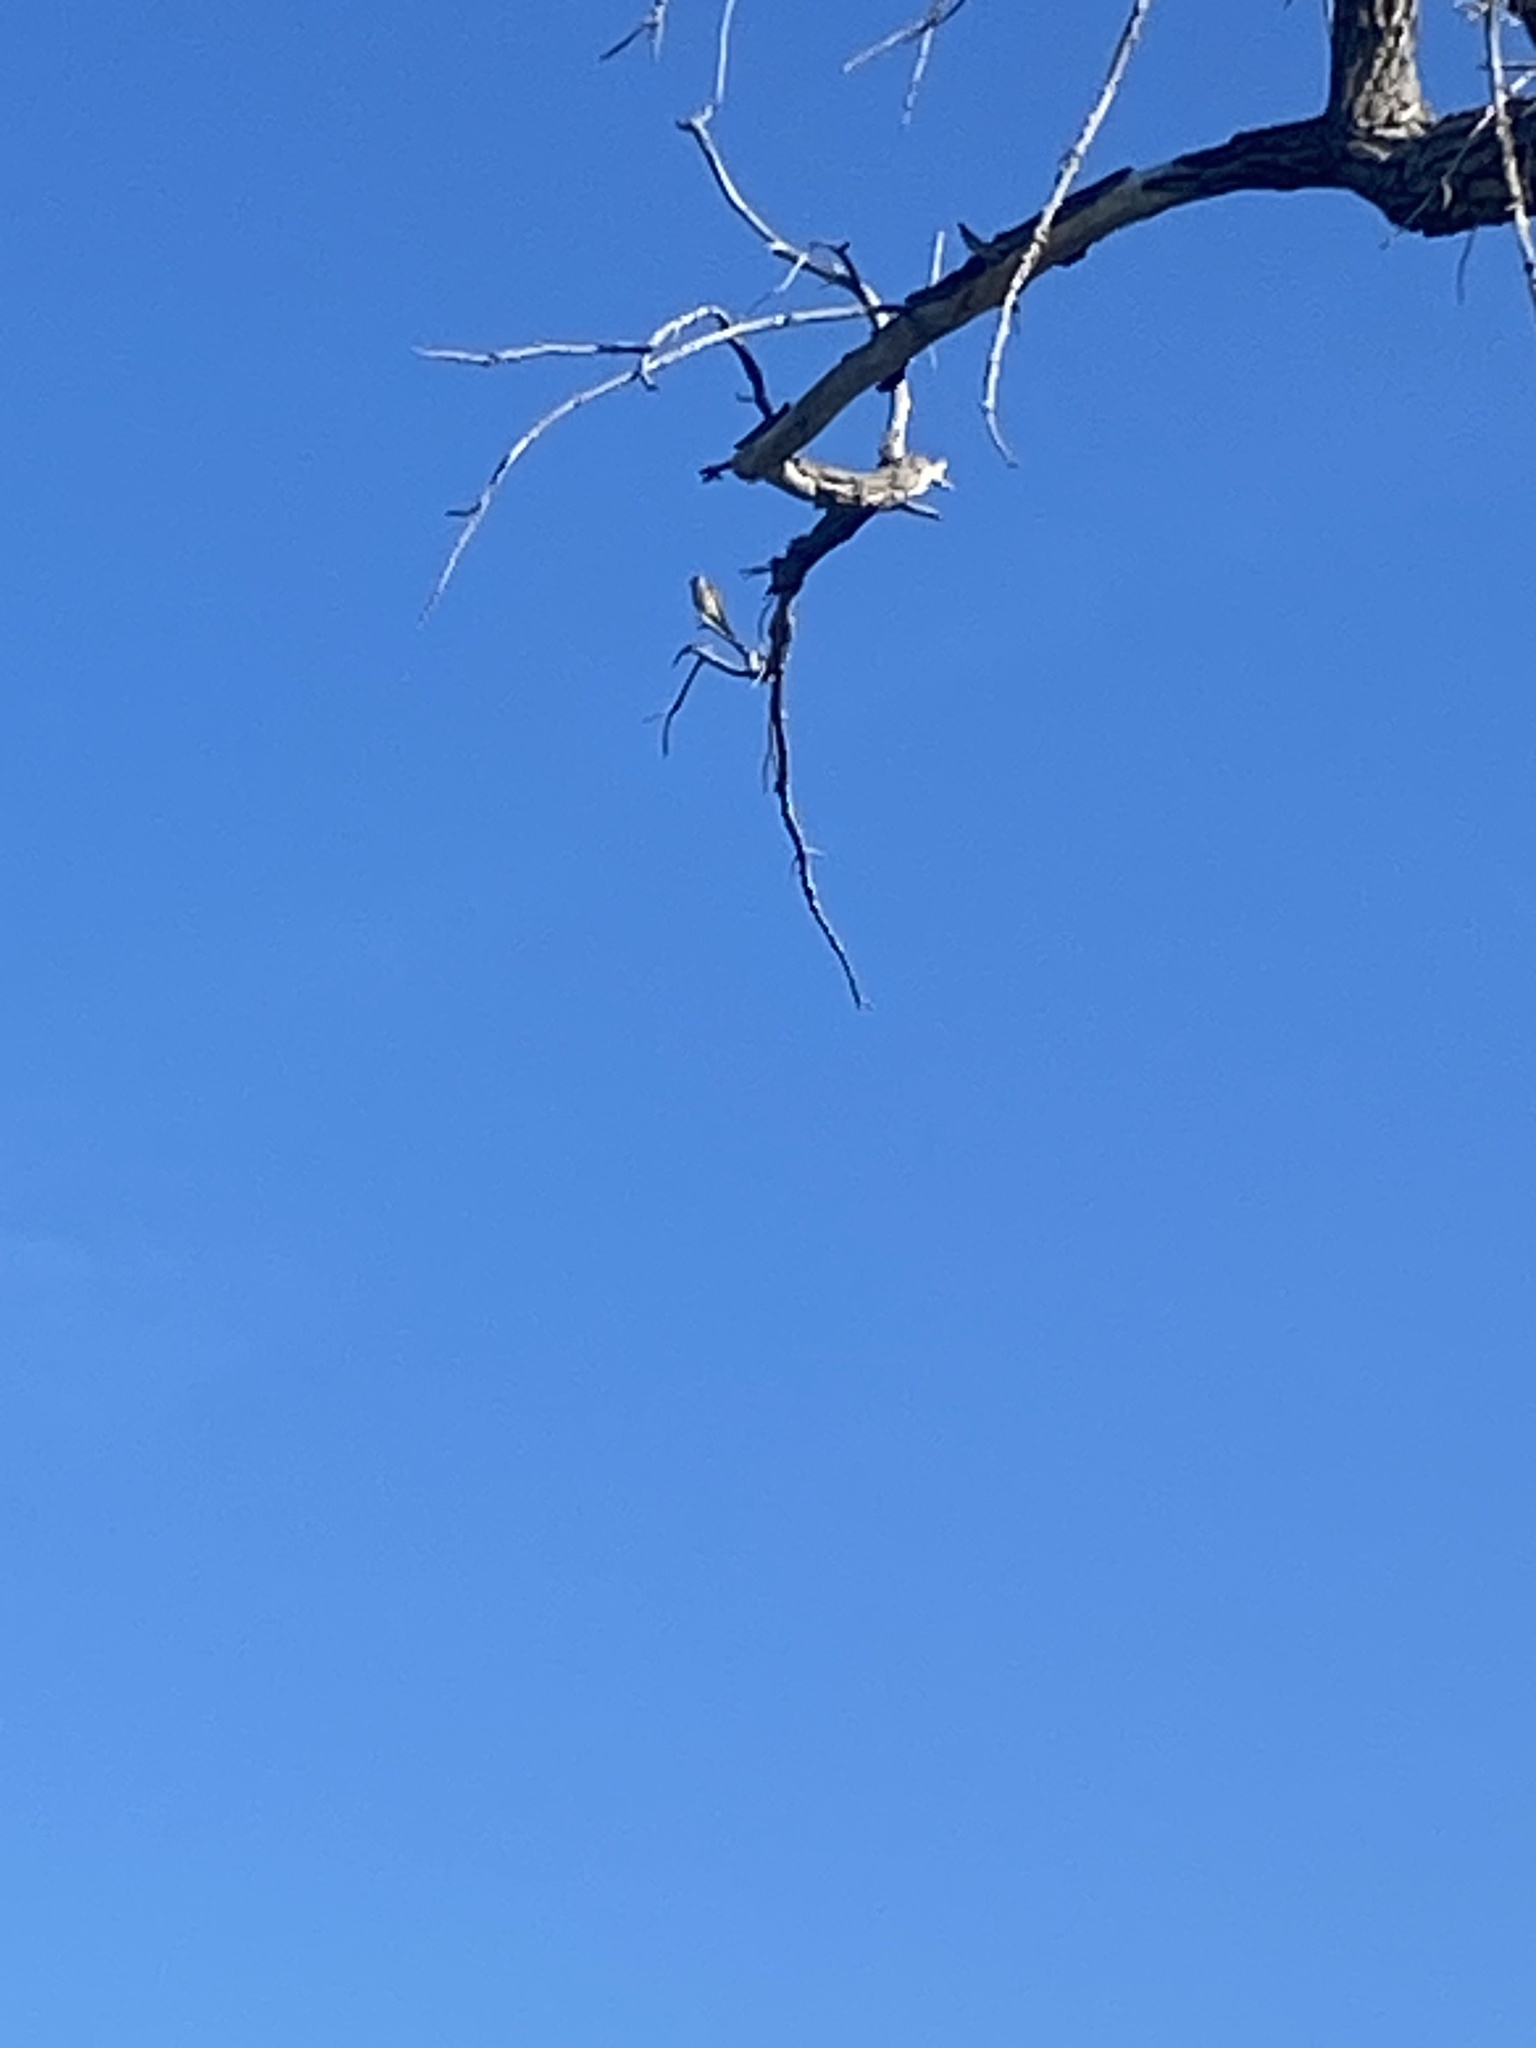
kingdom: Animalia
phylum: Chordata
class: Aves
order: Falconiformes
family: Falconidae
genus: Falco
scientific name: Falco sparverius
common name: American kestrel
